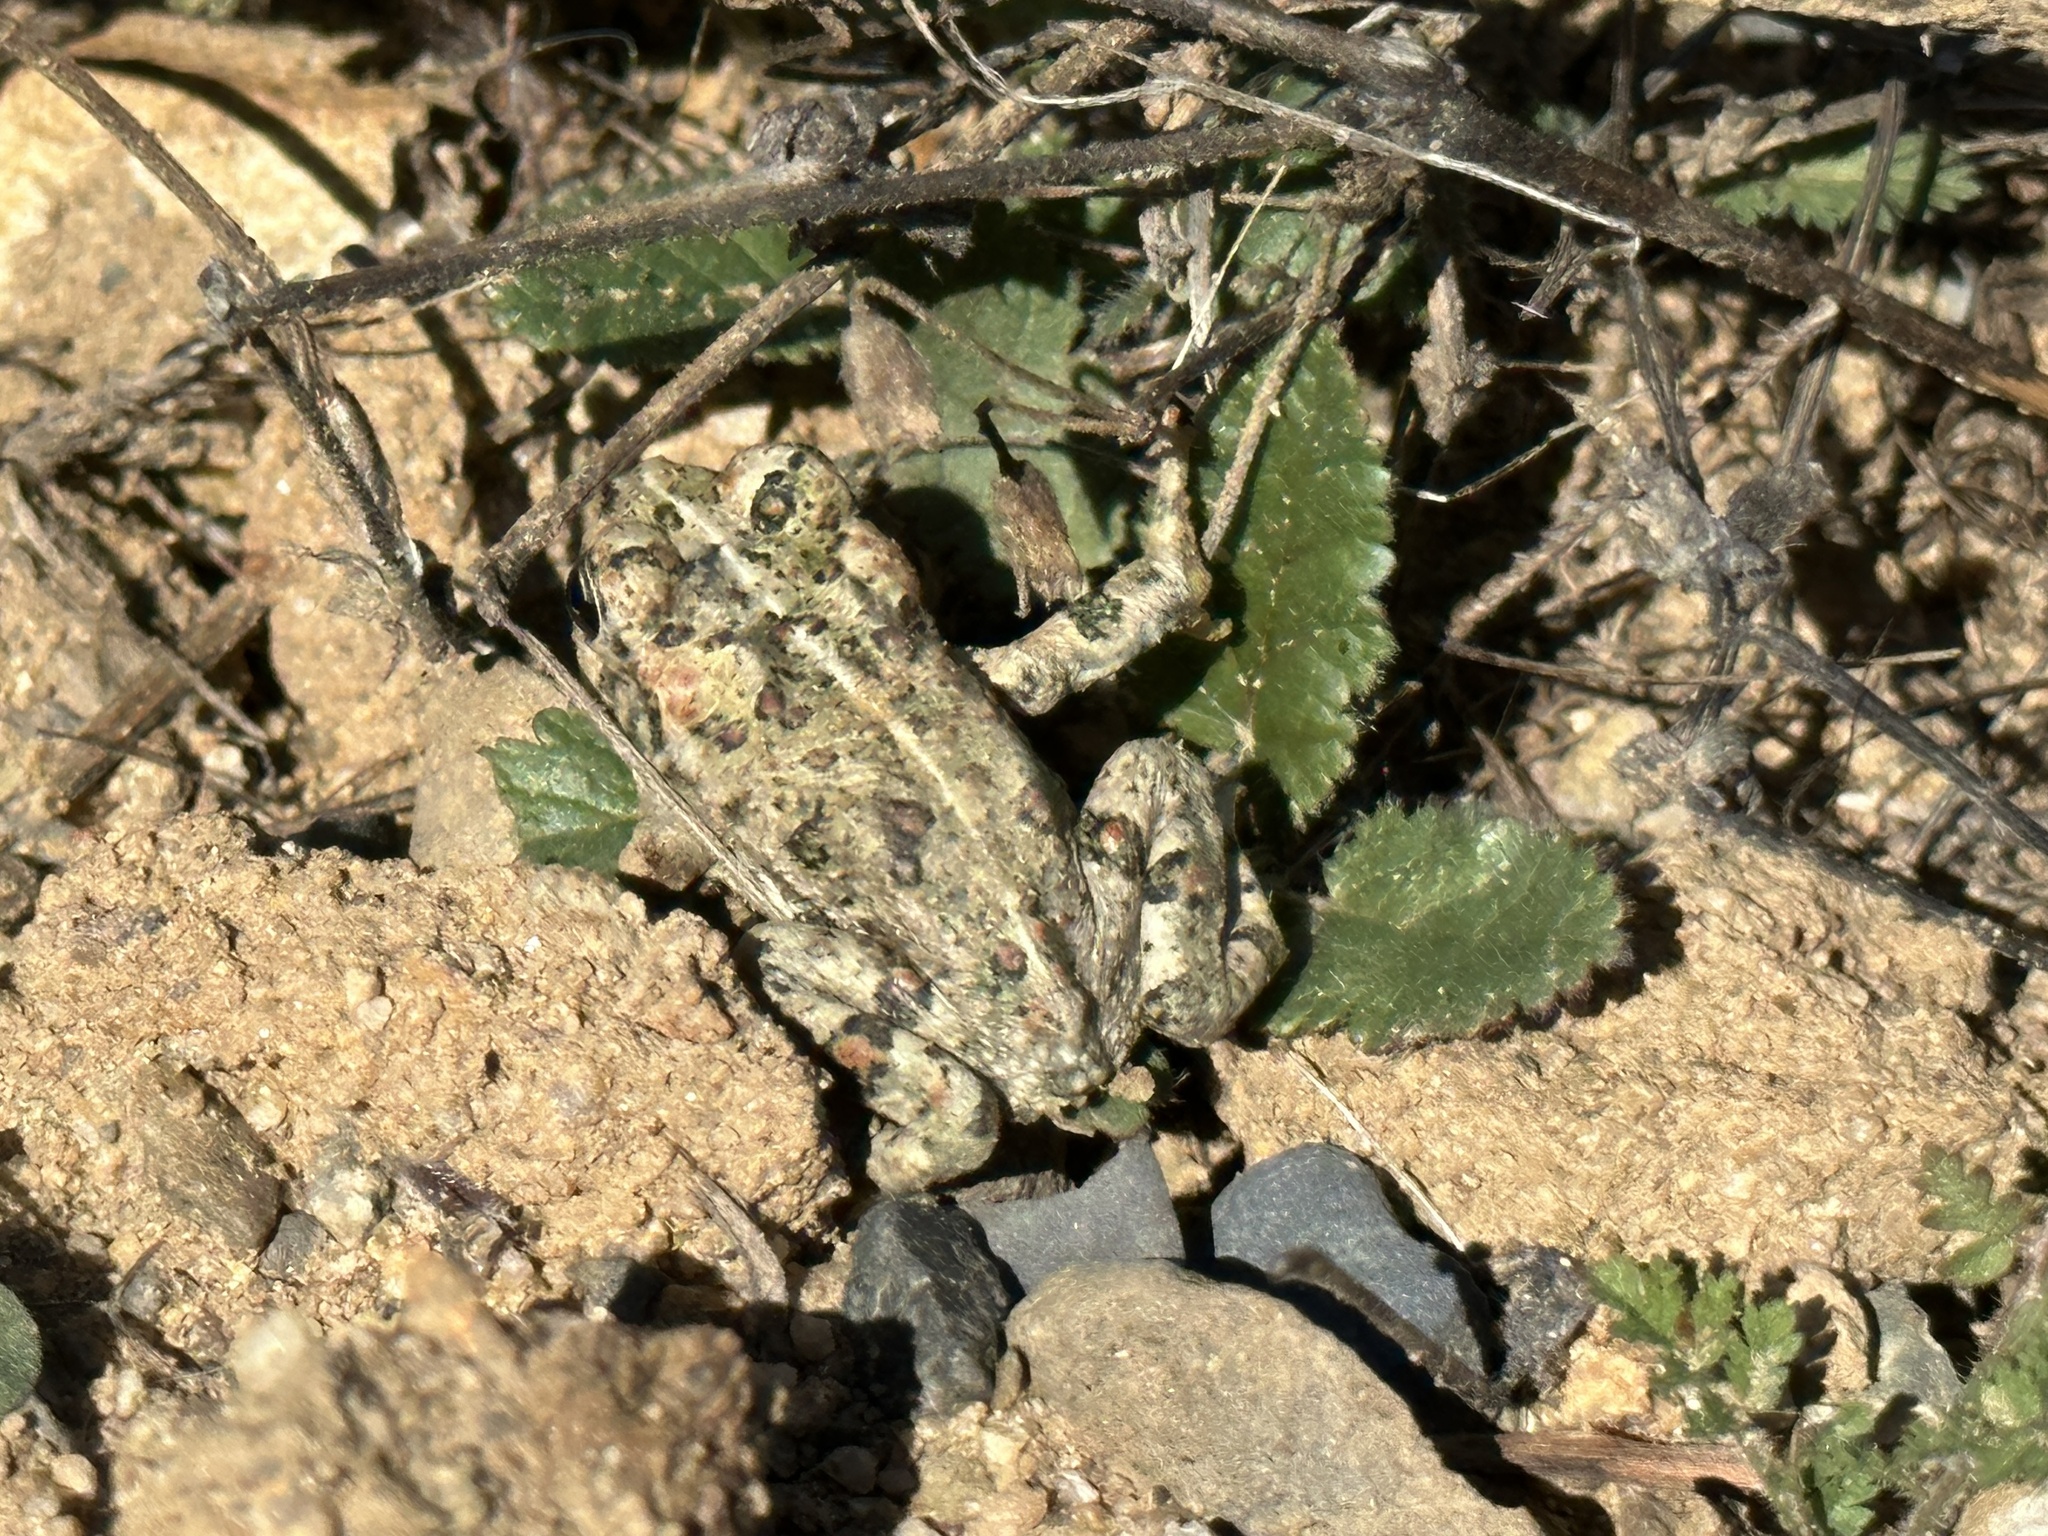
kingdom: Animalia
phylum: Chordata
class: Amphibia
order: Anura
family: Bufonidae
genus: Anaxyrus
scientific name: Anaxyrus boreas
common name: Western toad
